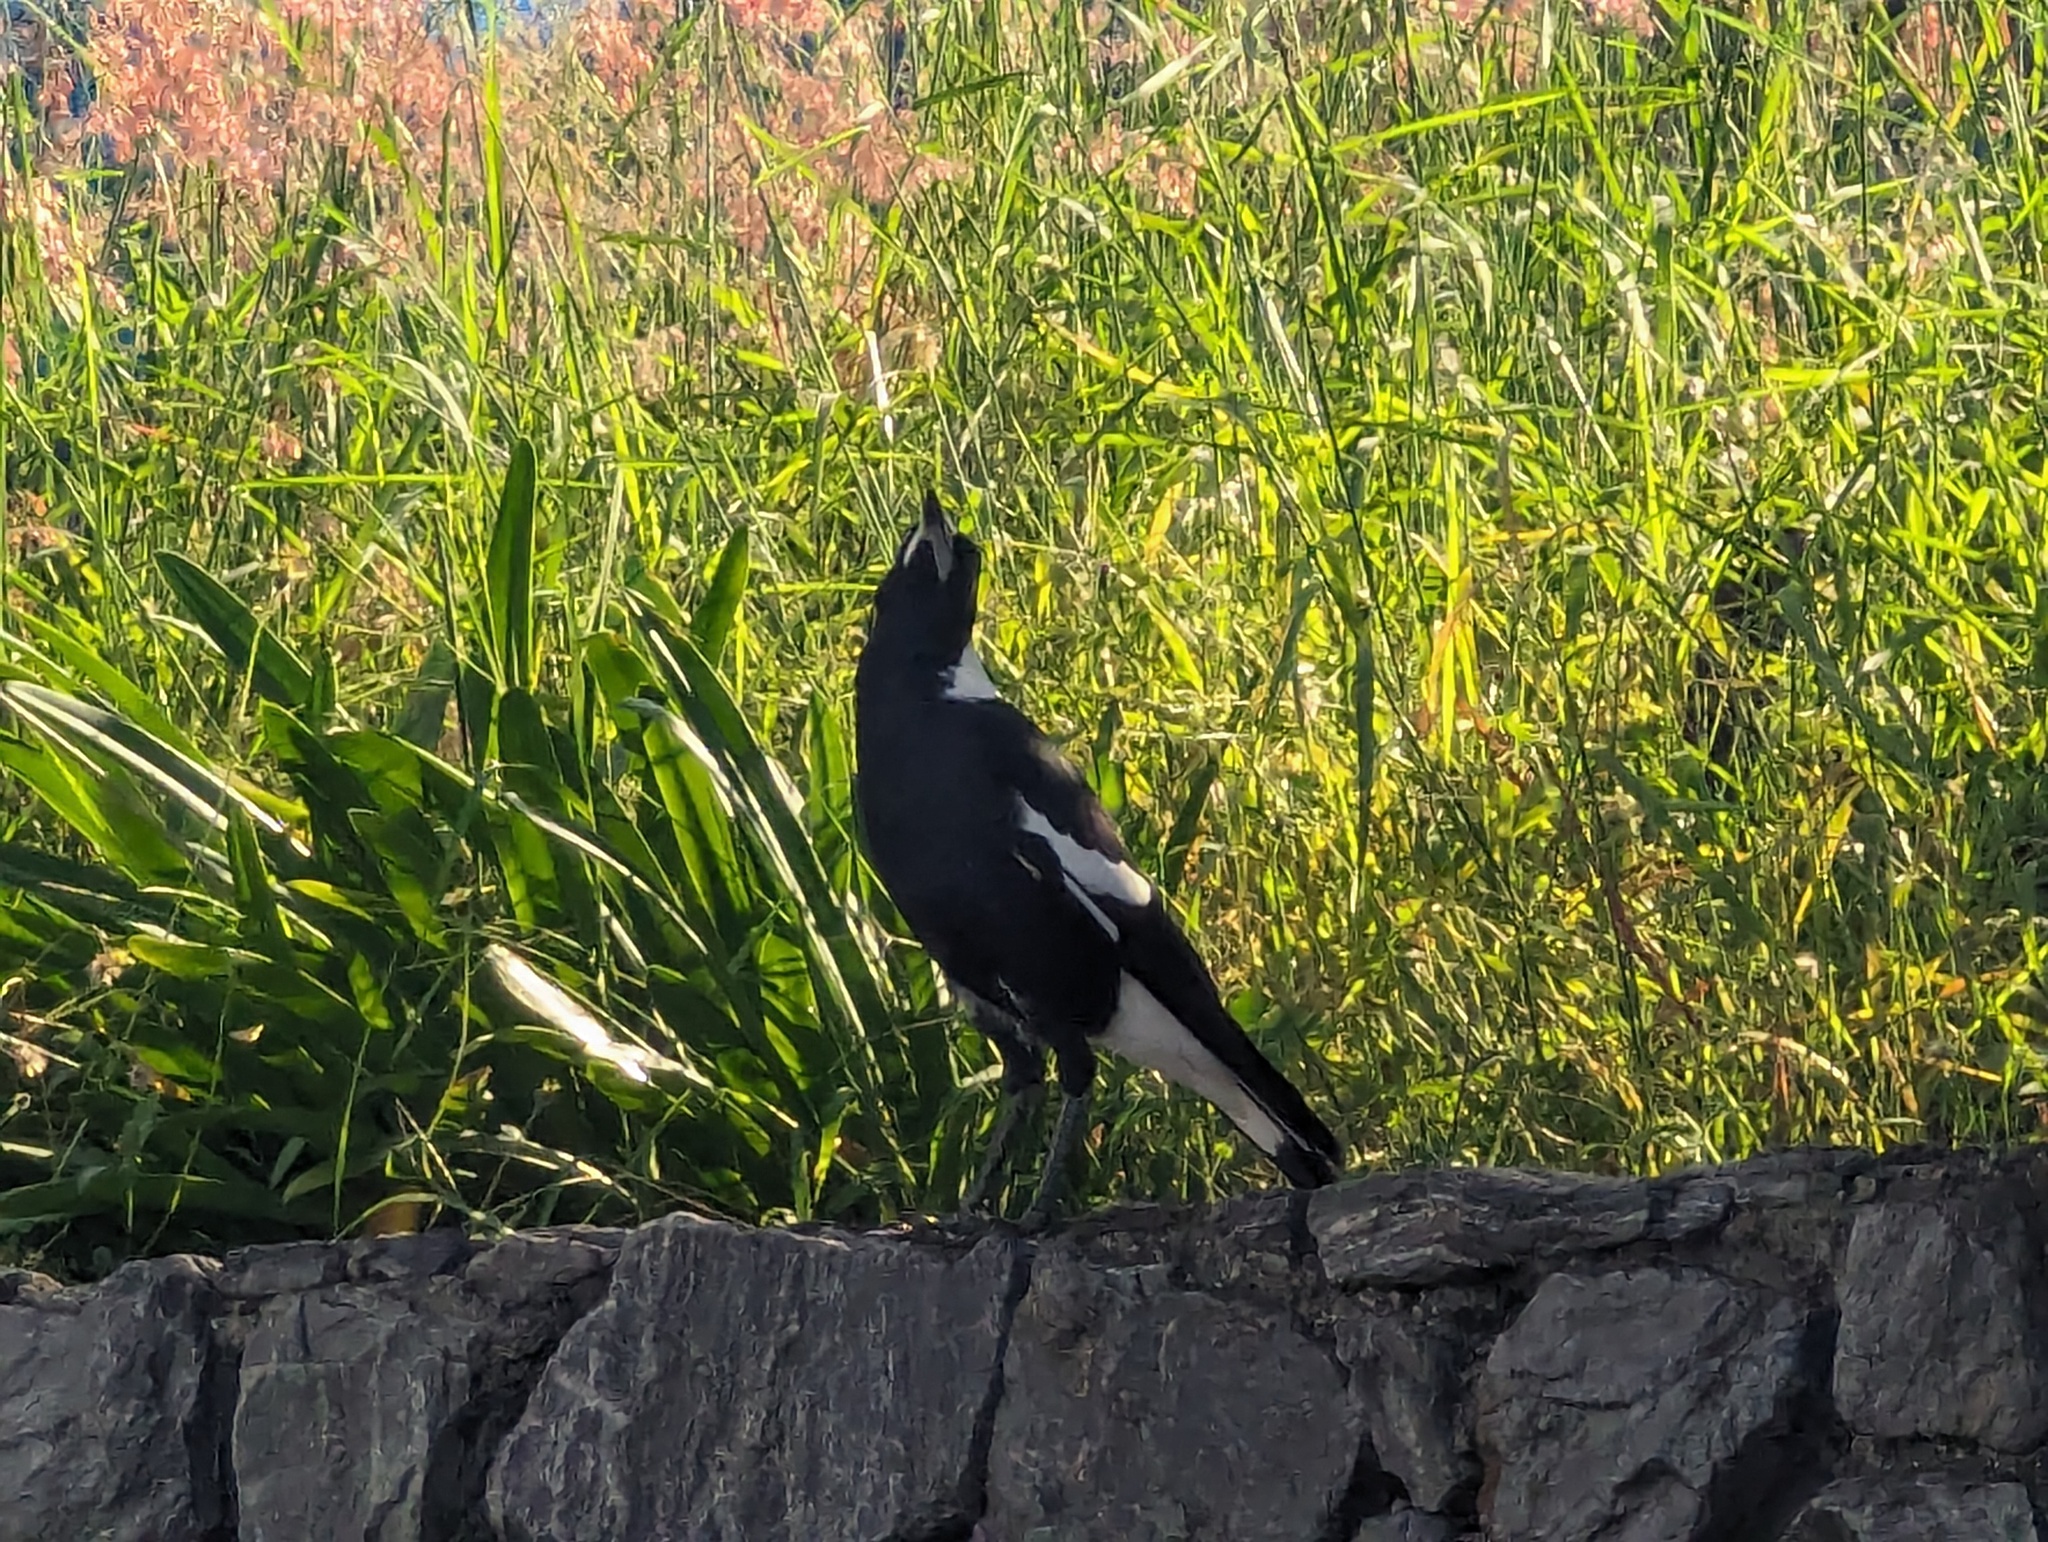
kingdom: Animalia
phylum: Chordata
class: Aves
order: Passeriformes
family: Cracticidae
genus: Gymnorhina
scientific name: Gymnorhina tibicen
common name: Australian magpie
